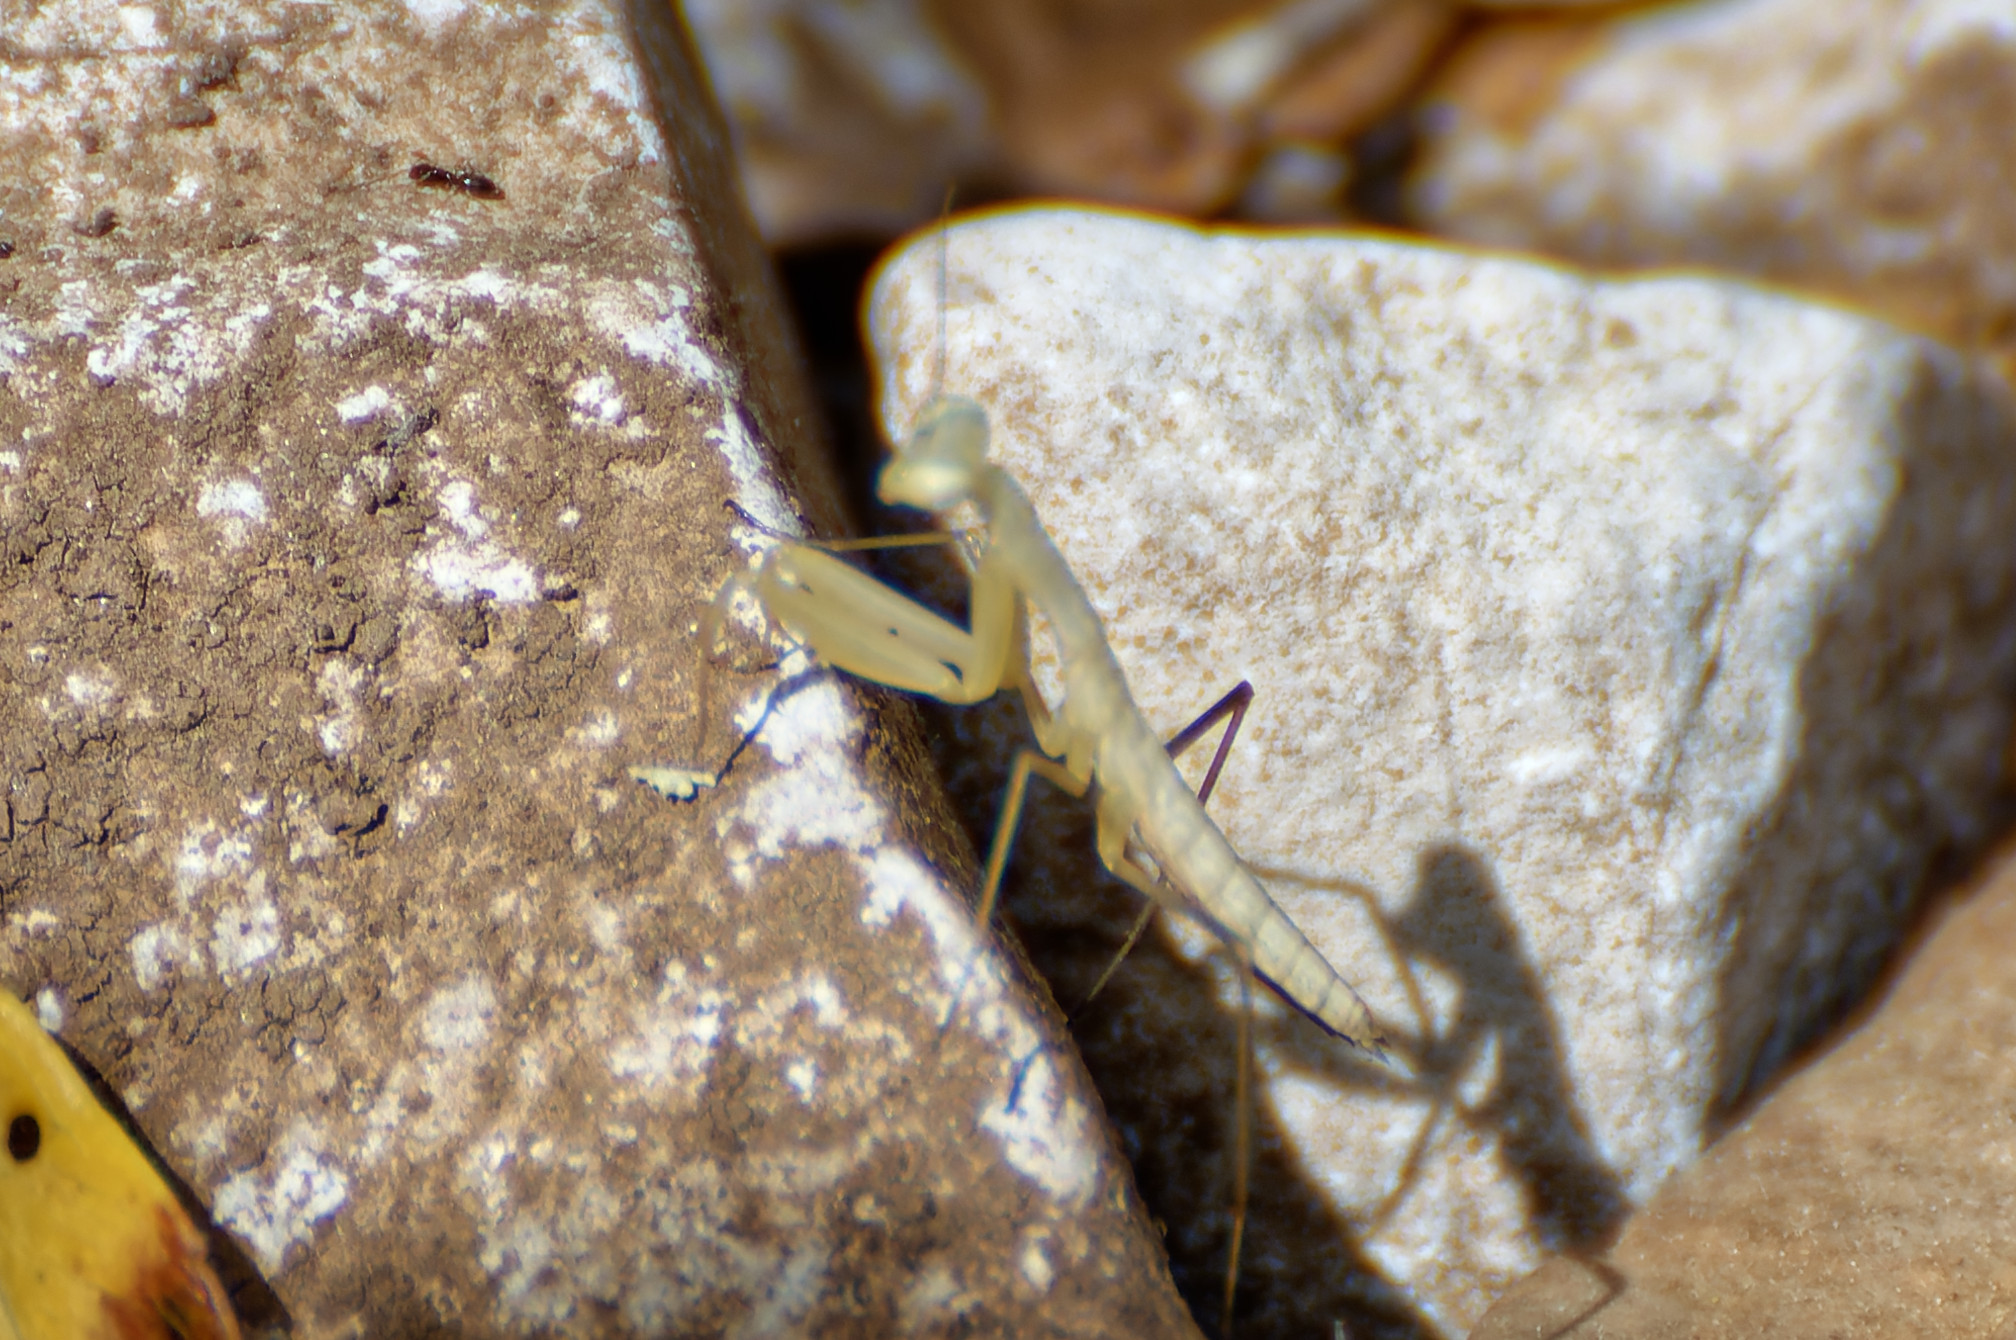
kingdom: Animalia
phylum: Arthropoda
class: Insecta
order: Mantodea
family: Mantidae
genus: Mantis
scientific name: Mantis religiosa
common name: Praying mantis
